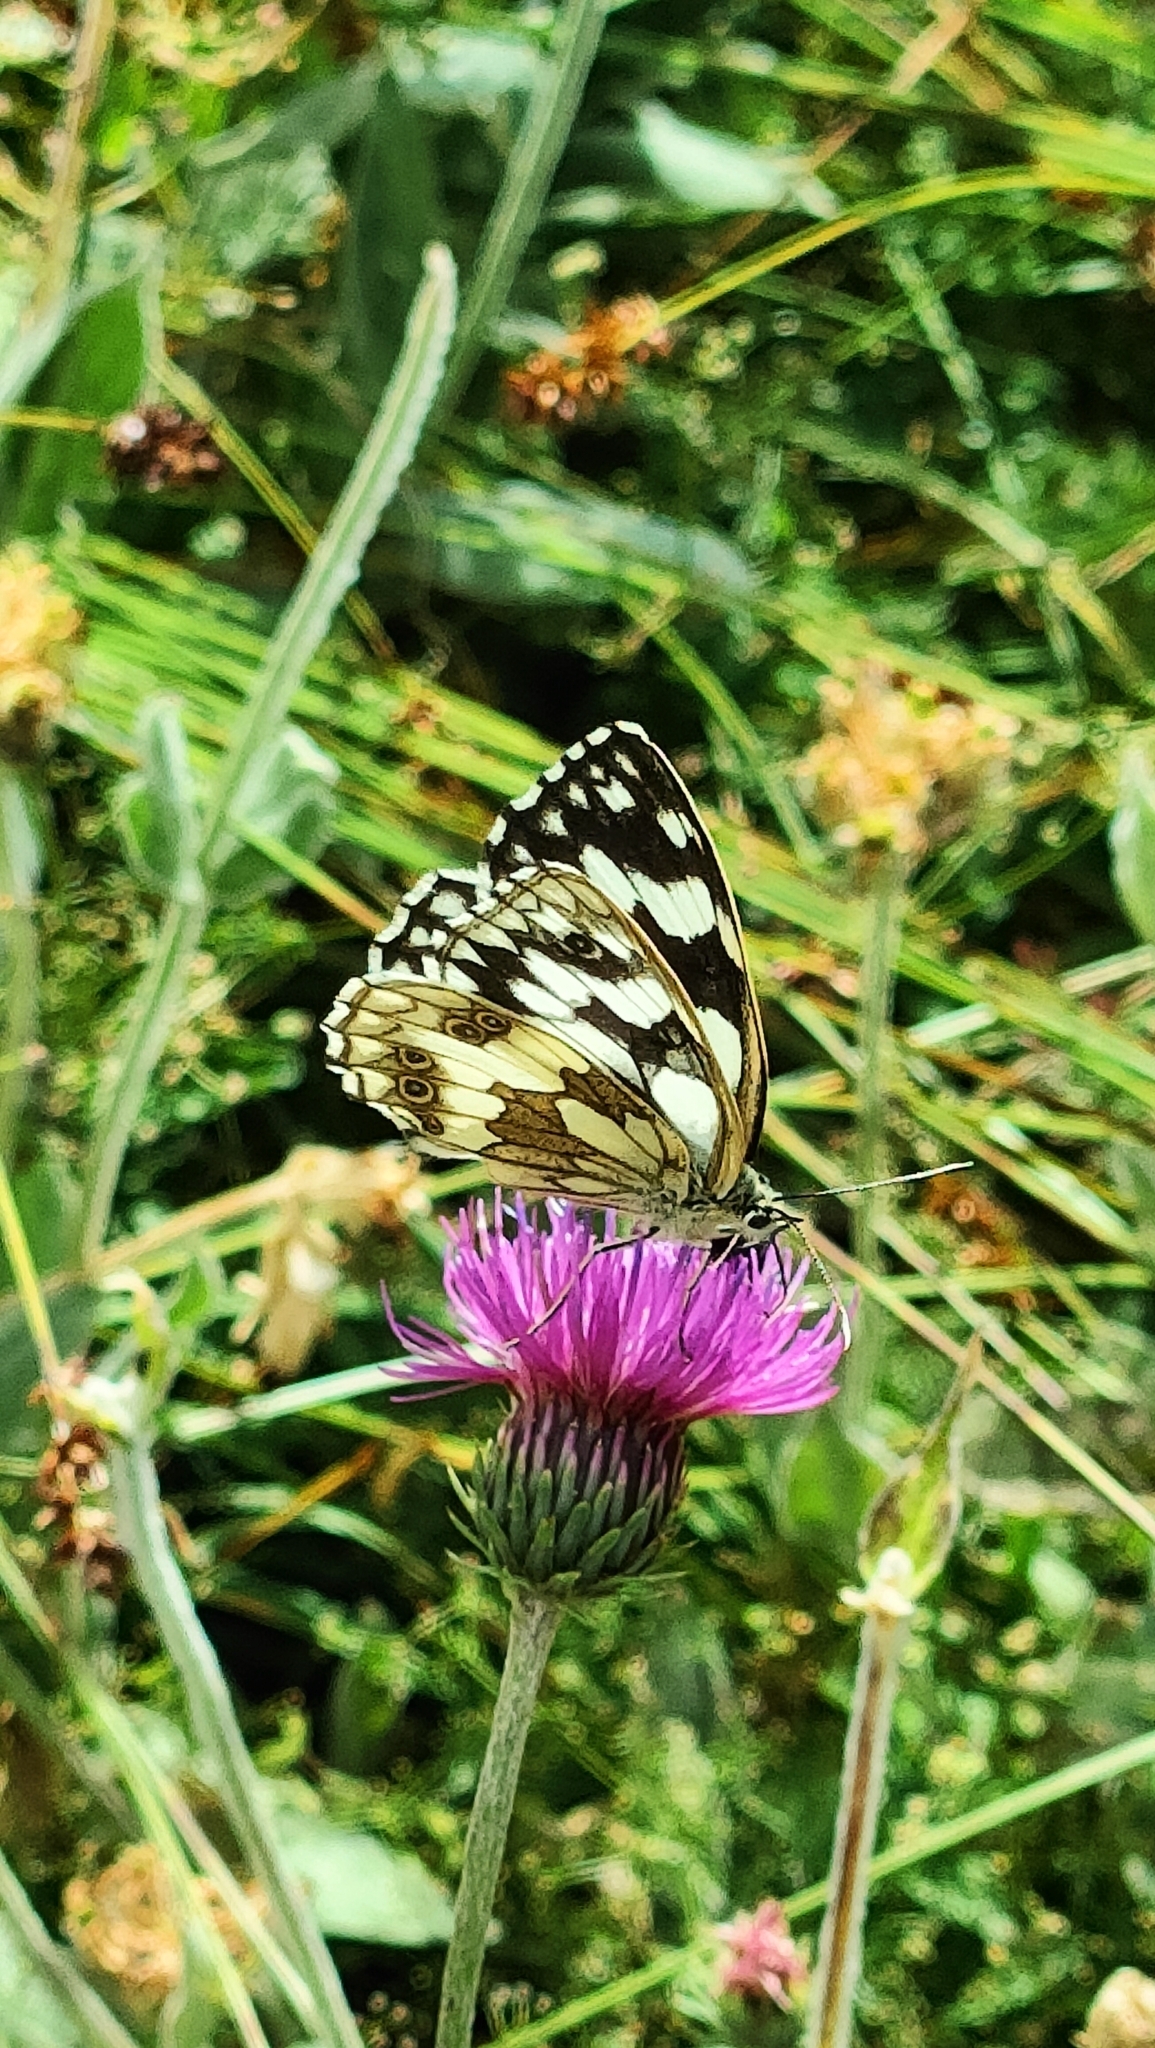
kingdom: Animalia
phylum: Arthropoda
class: Insecta
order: Lepidoptera
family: Nymphalidae
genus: Melanargia
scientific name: Melanargia galathea
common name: Marbled white
